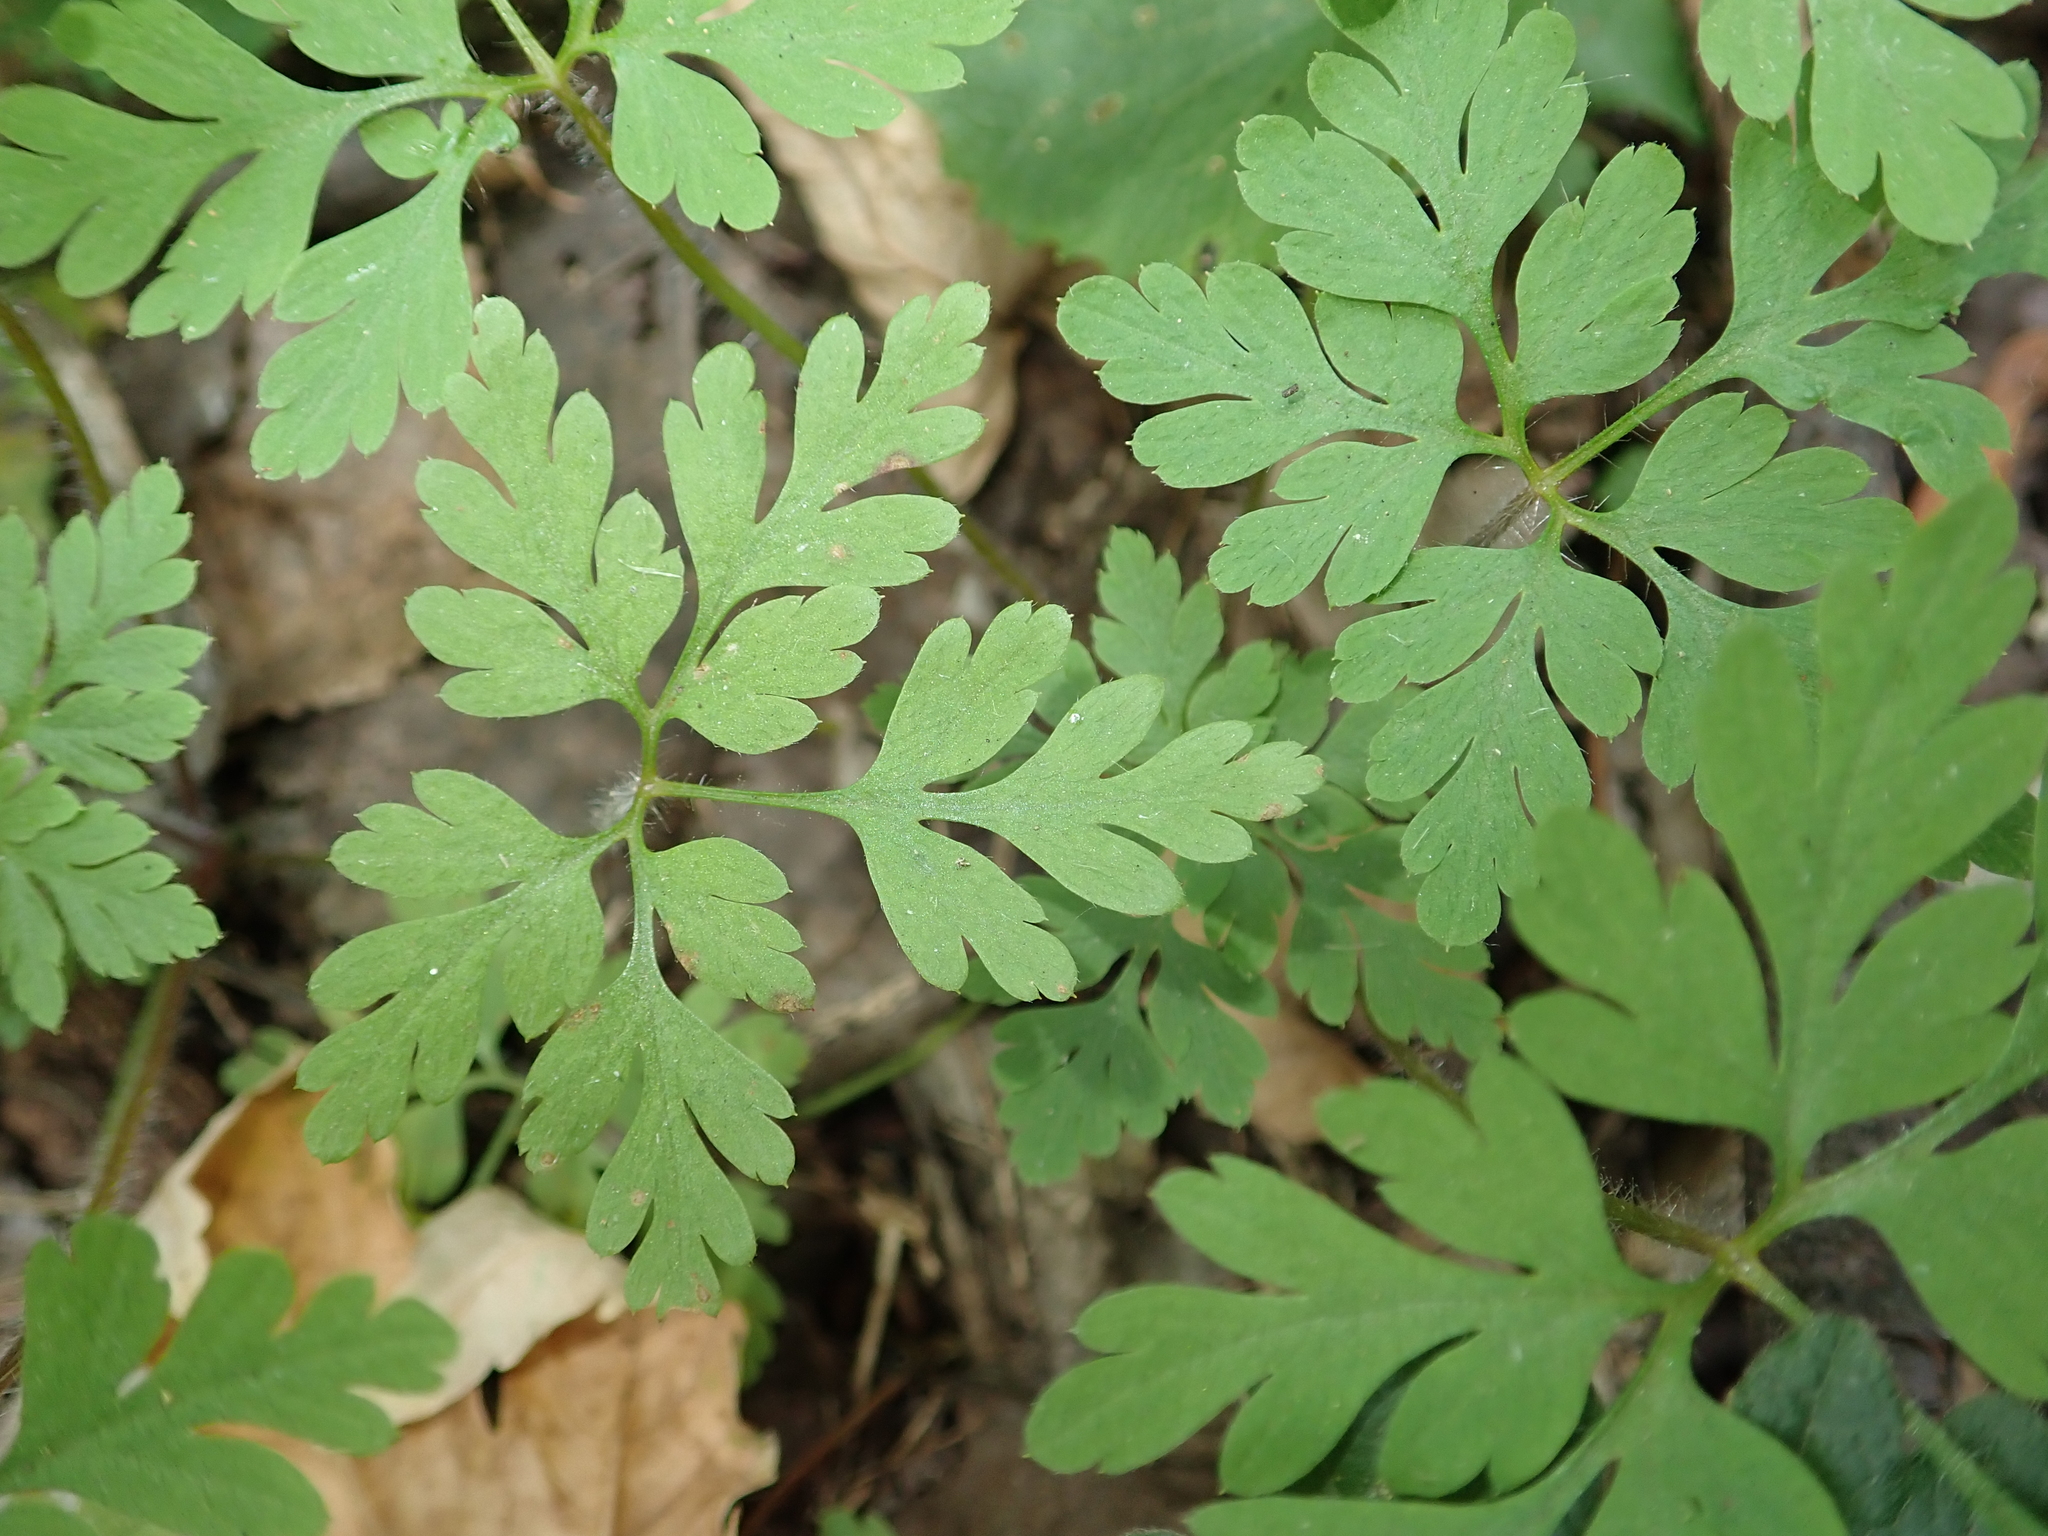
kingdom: Plantae
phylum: Tracheophyta
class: Magnoliopsida
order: Geraniales
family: Geraniaceae
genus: Geranium
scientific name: Geranium robertianum
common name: Herb-robert
